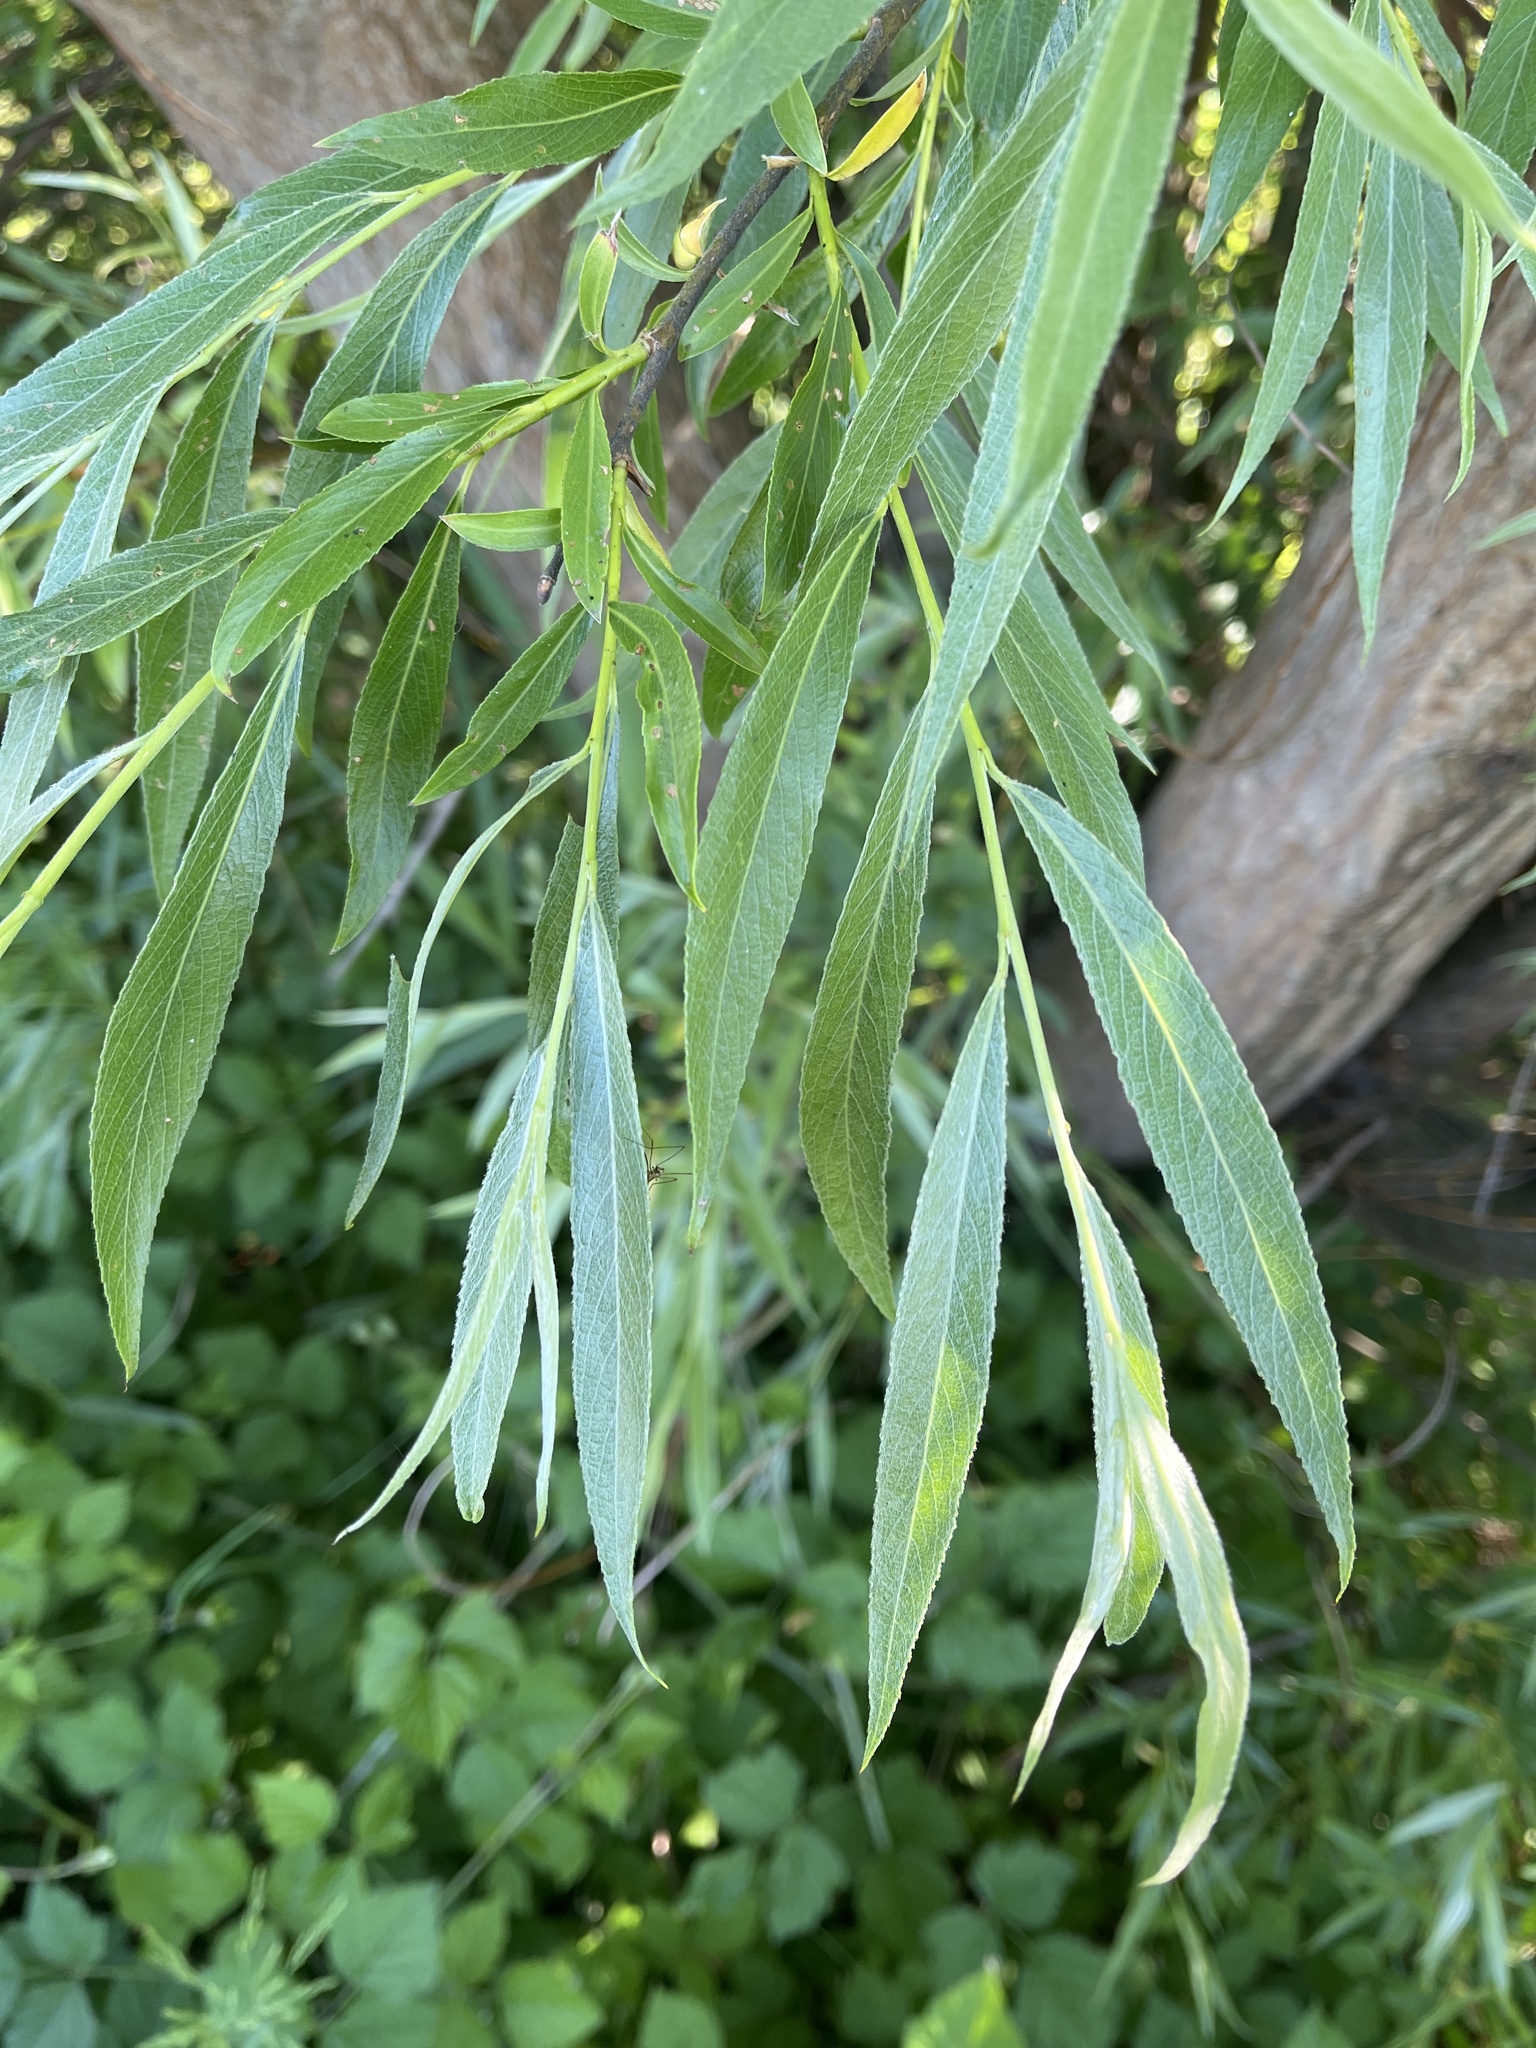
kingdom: Plantae
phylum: Tracheophyta
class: Magnoliopsida
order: Malpighiales
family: Salicaceae
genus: Salix
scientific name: Salix alba
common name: White willow
